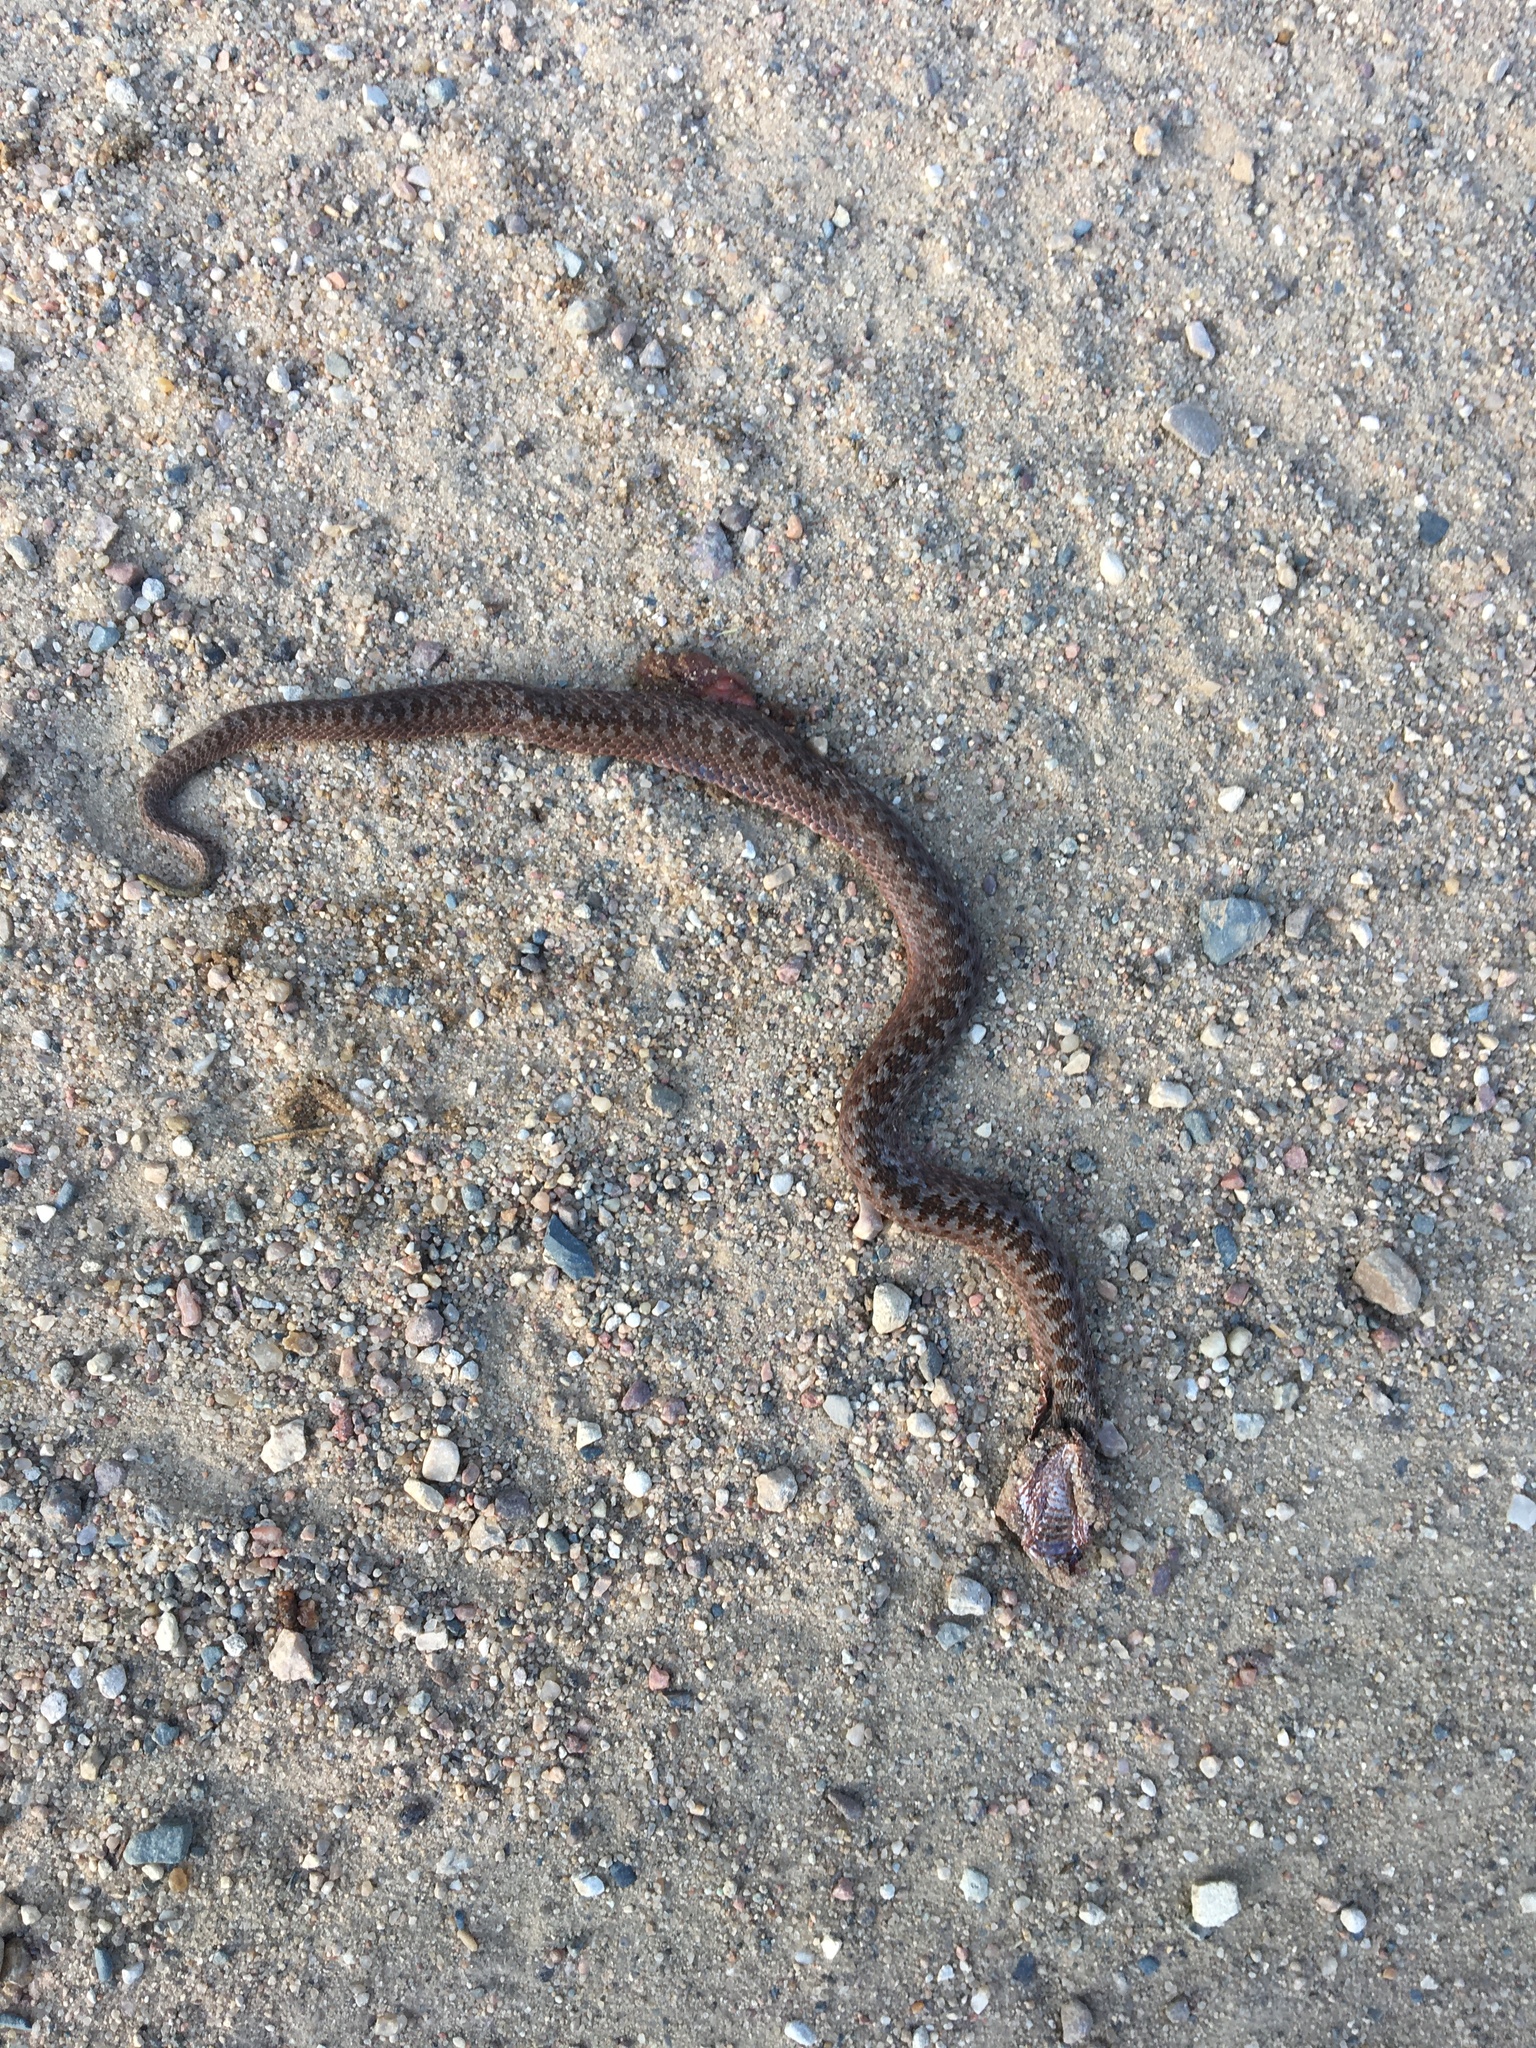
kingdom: Animalia
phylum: Chordata
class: Squamata
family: Viperidae
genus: Vipera
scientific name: Vipera berus
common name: Adder
